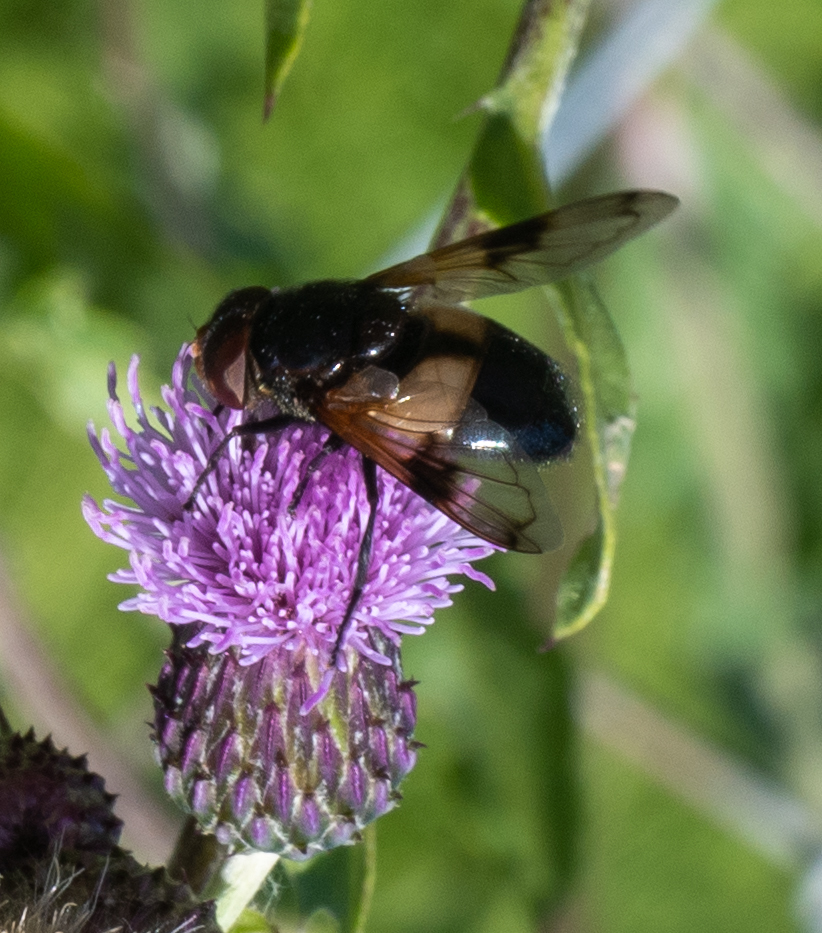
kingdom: Animalia
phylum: Arthropoda
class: Insecta
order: Diptera
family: Syrphidae
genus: Volucella
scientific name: Volucella pellucens
